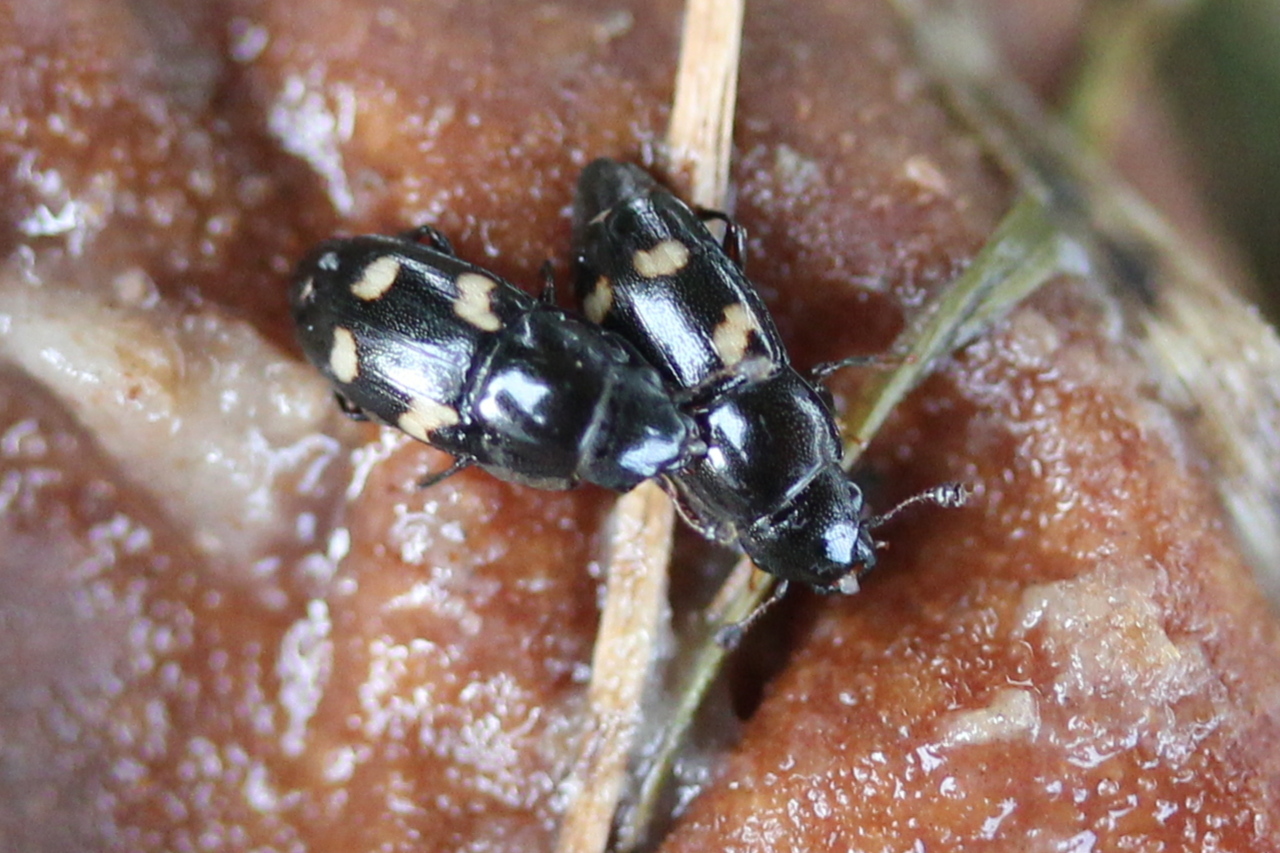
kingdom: Animalia
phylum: Arthropoda
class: Insecta
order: Coleoptera
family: Nitidulidae
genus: Glischrochilus
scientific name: Glischrochilus quadrisignatus
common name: Picnic beetle
